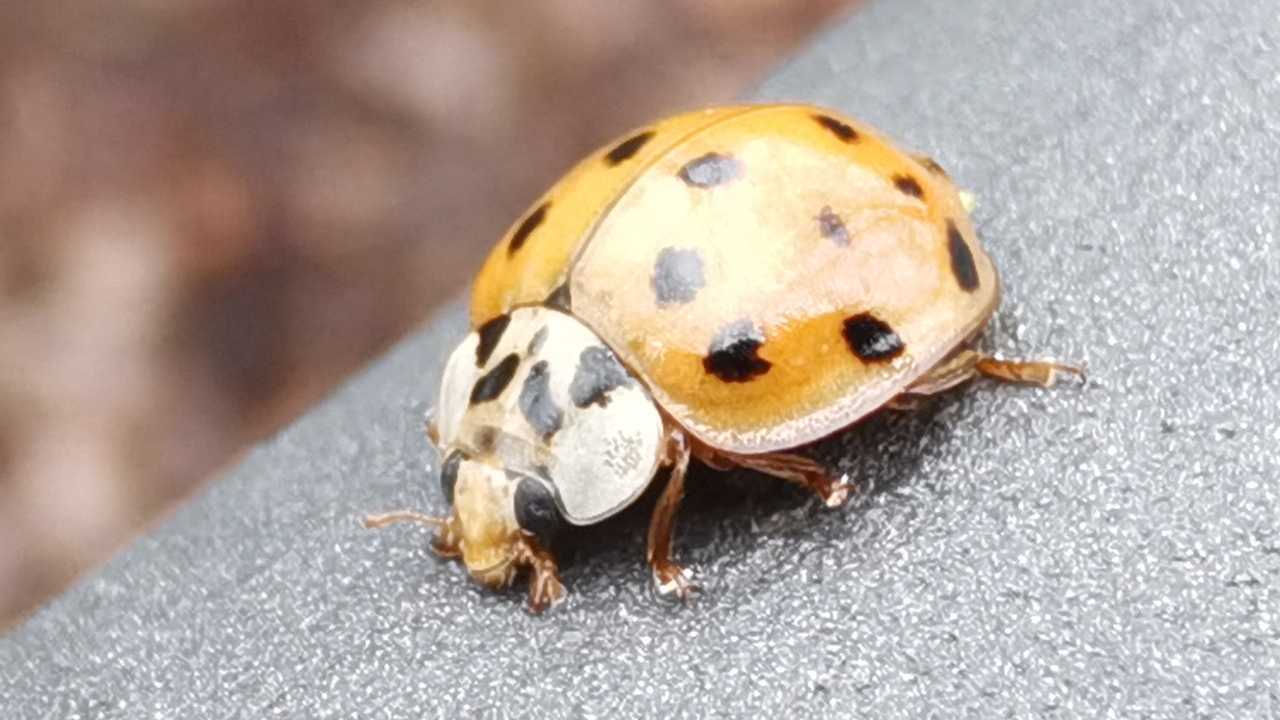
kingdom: Animalia
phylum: Arthropoda
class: Insecta
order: Coleoptera
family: Coccinellidae
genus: Harmonia
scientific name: Harmonia axyridis
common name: Harlequin ladybird
